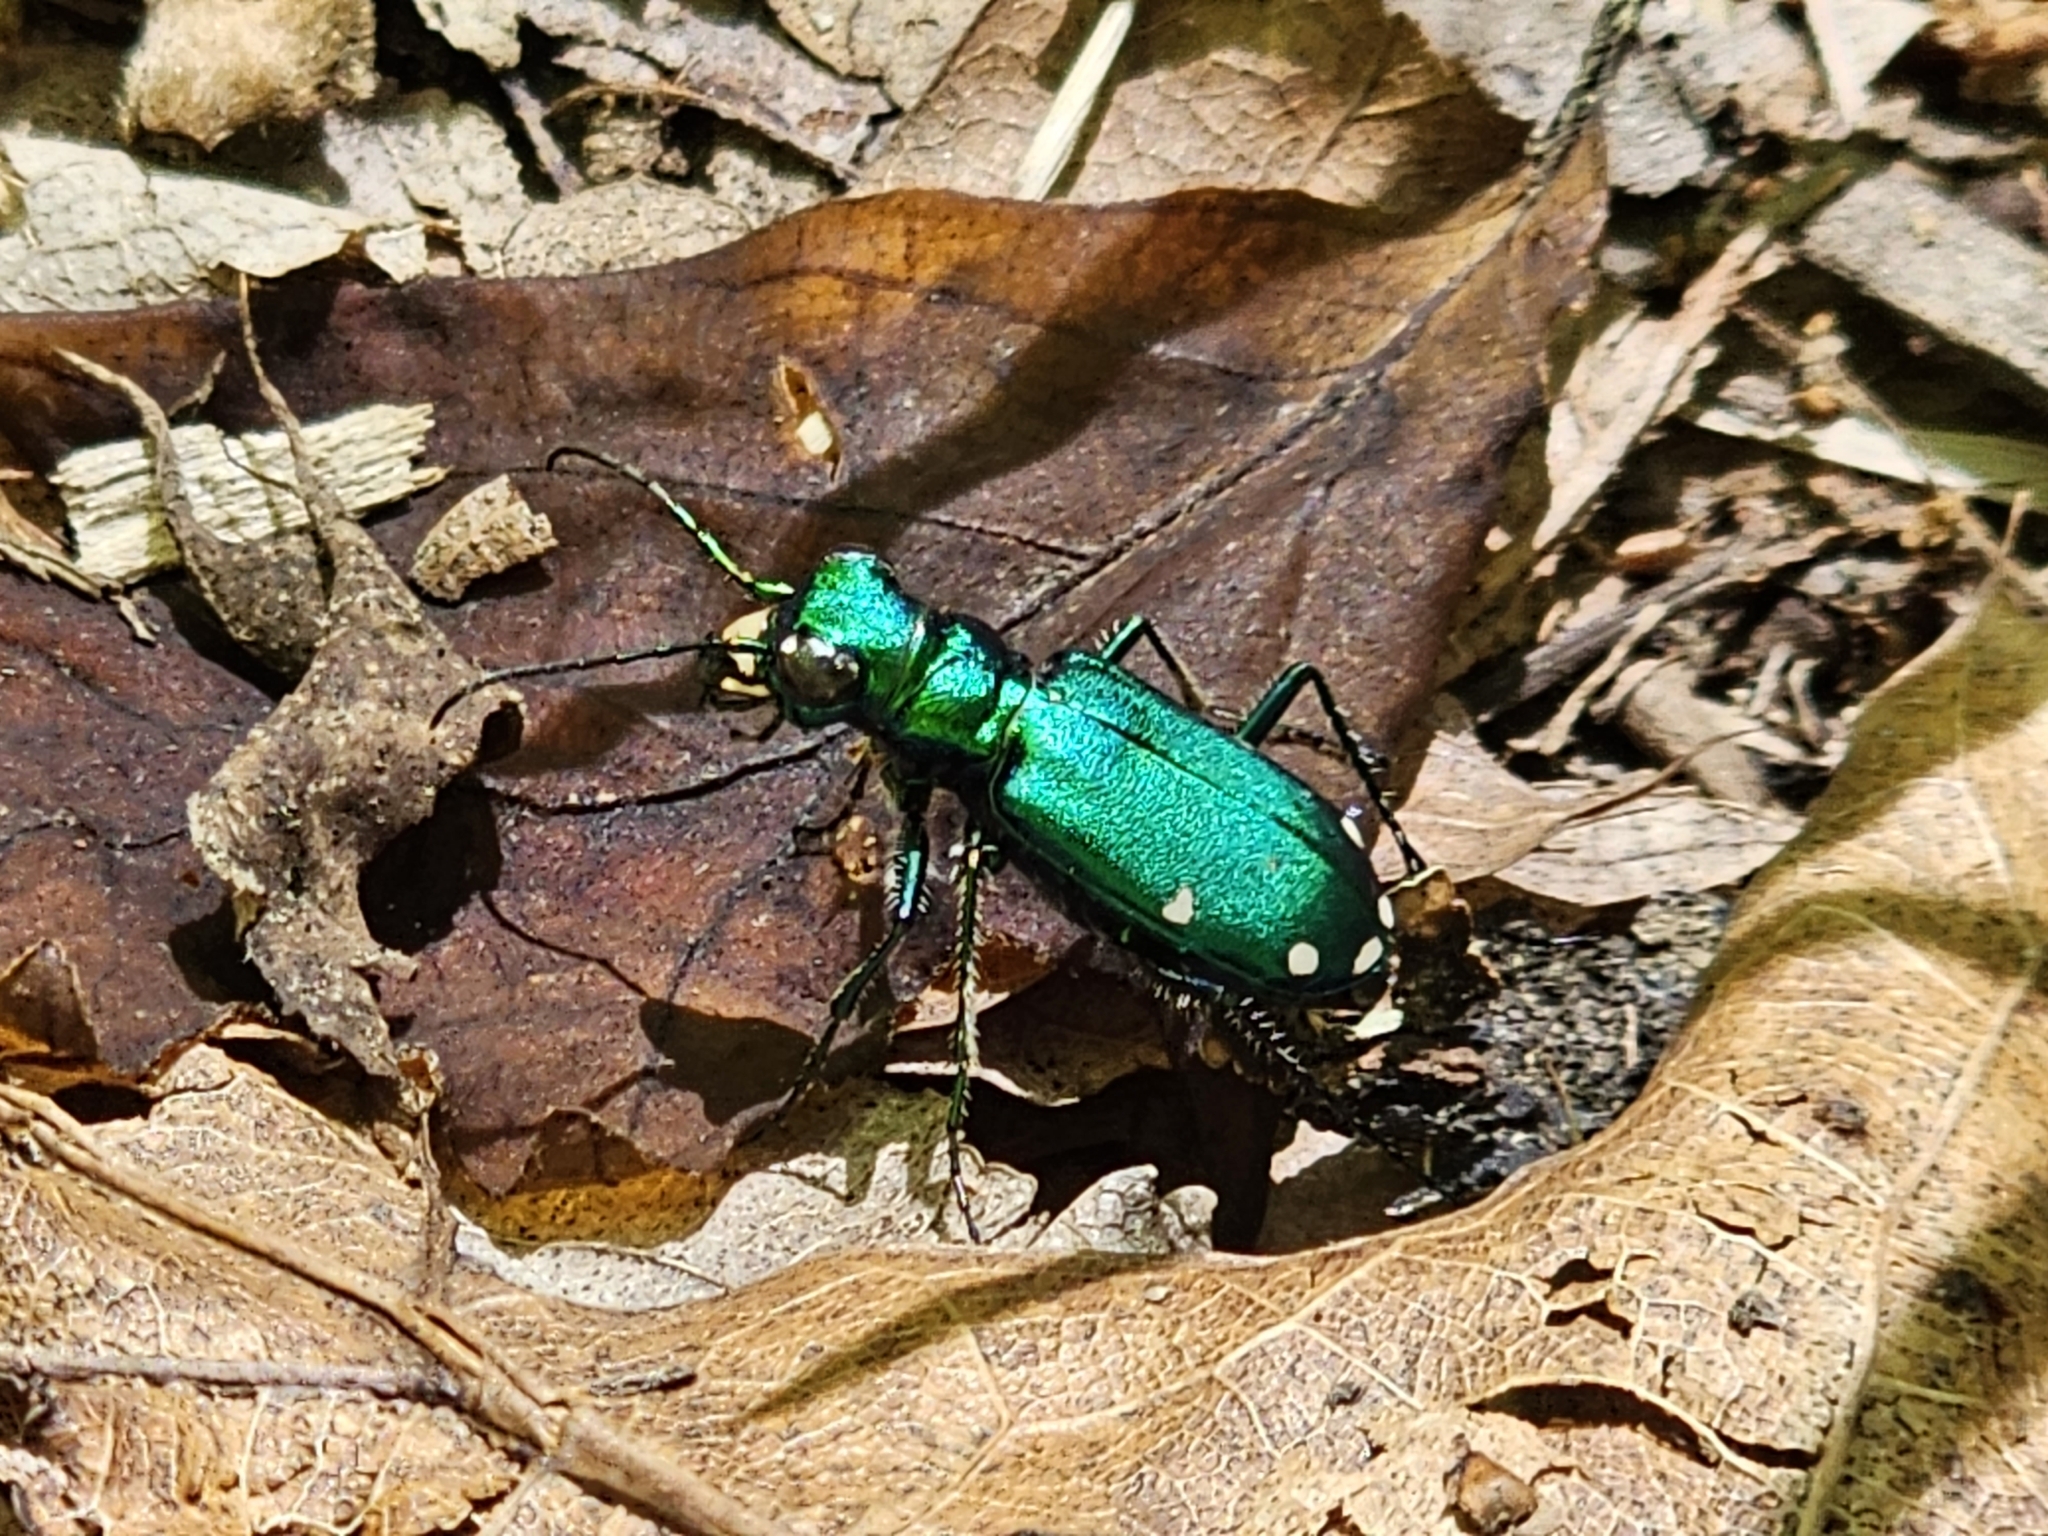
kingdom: Animalia
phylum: Arthropoda
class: Insecta
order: Coleoptera
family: Carabidae
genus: Cicindela
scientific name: Cicindela sexguttata
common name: Six-spotted tiger beetle
